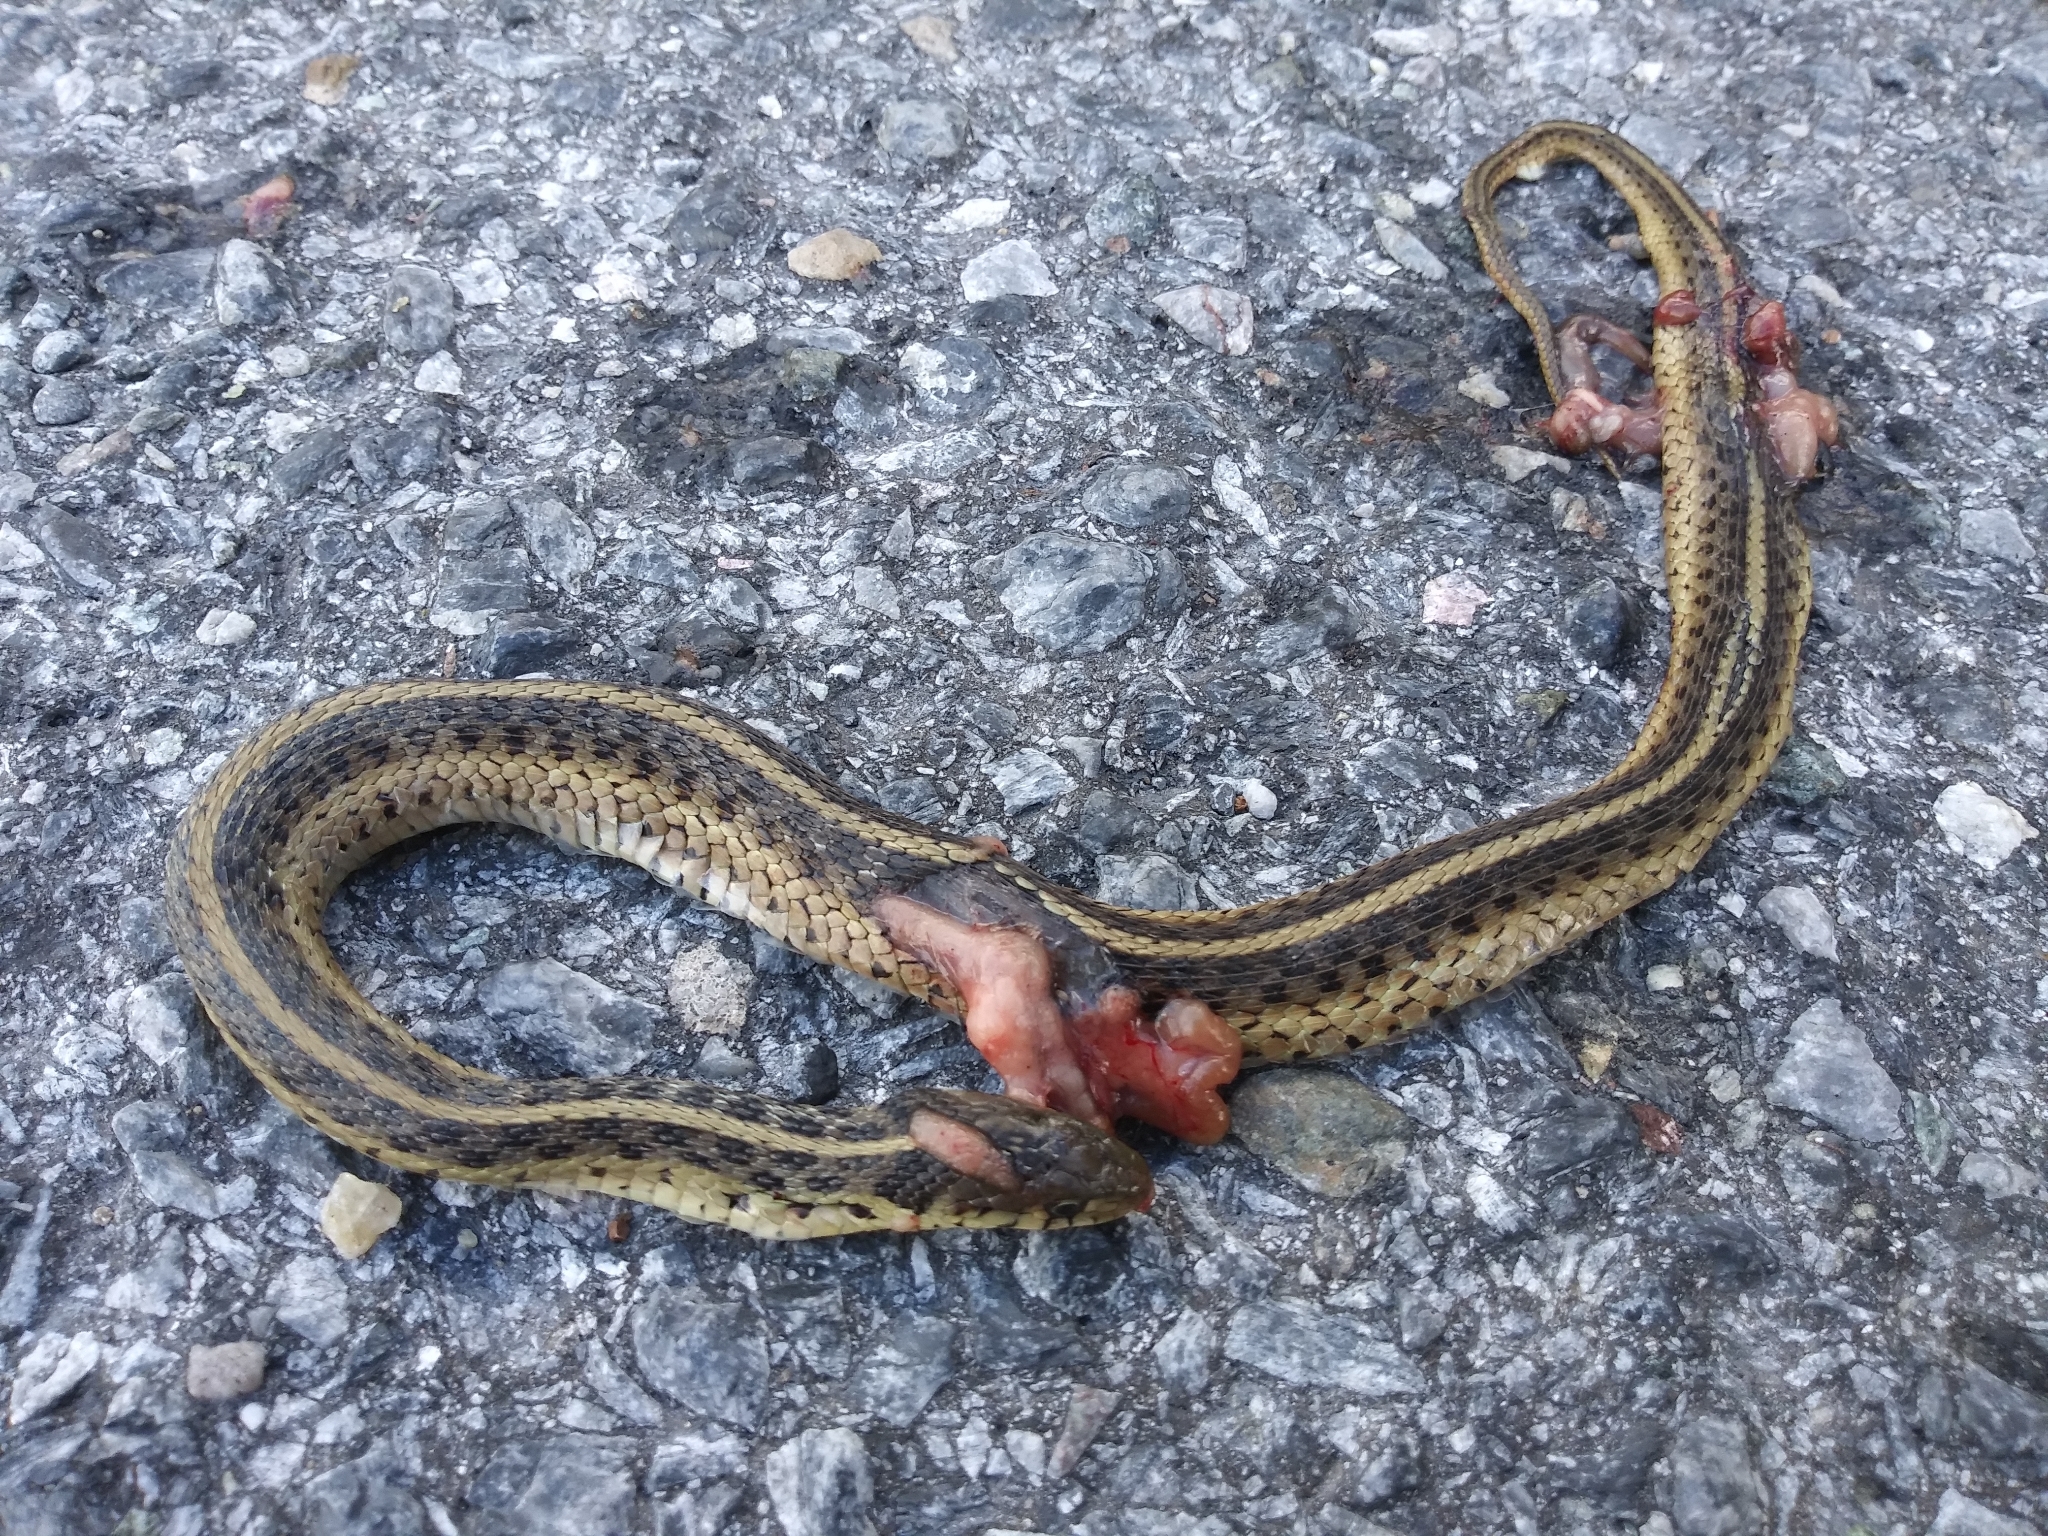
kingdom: Animalia
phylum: Chordata
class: Squamata
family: Colubridae
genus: Thamnophis
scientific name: Thamnophis sirtalis
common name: Common garter snake
